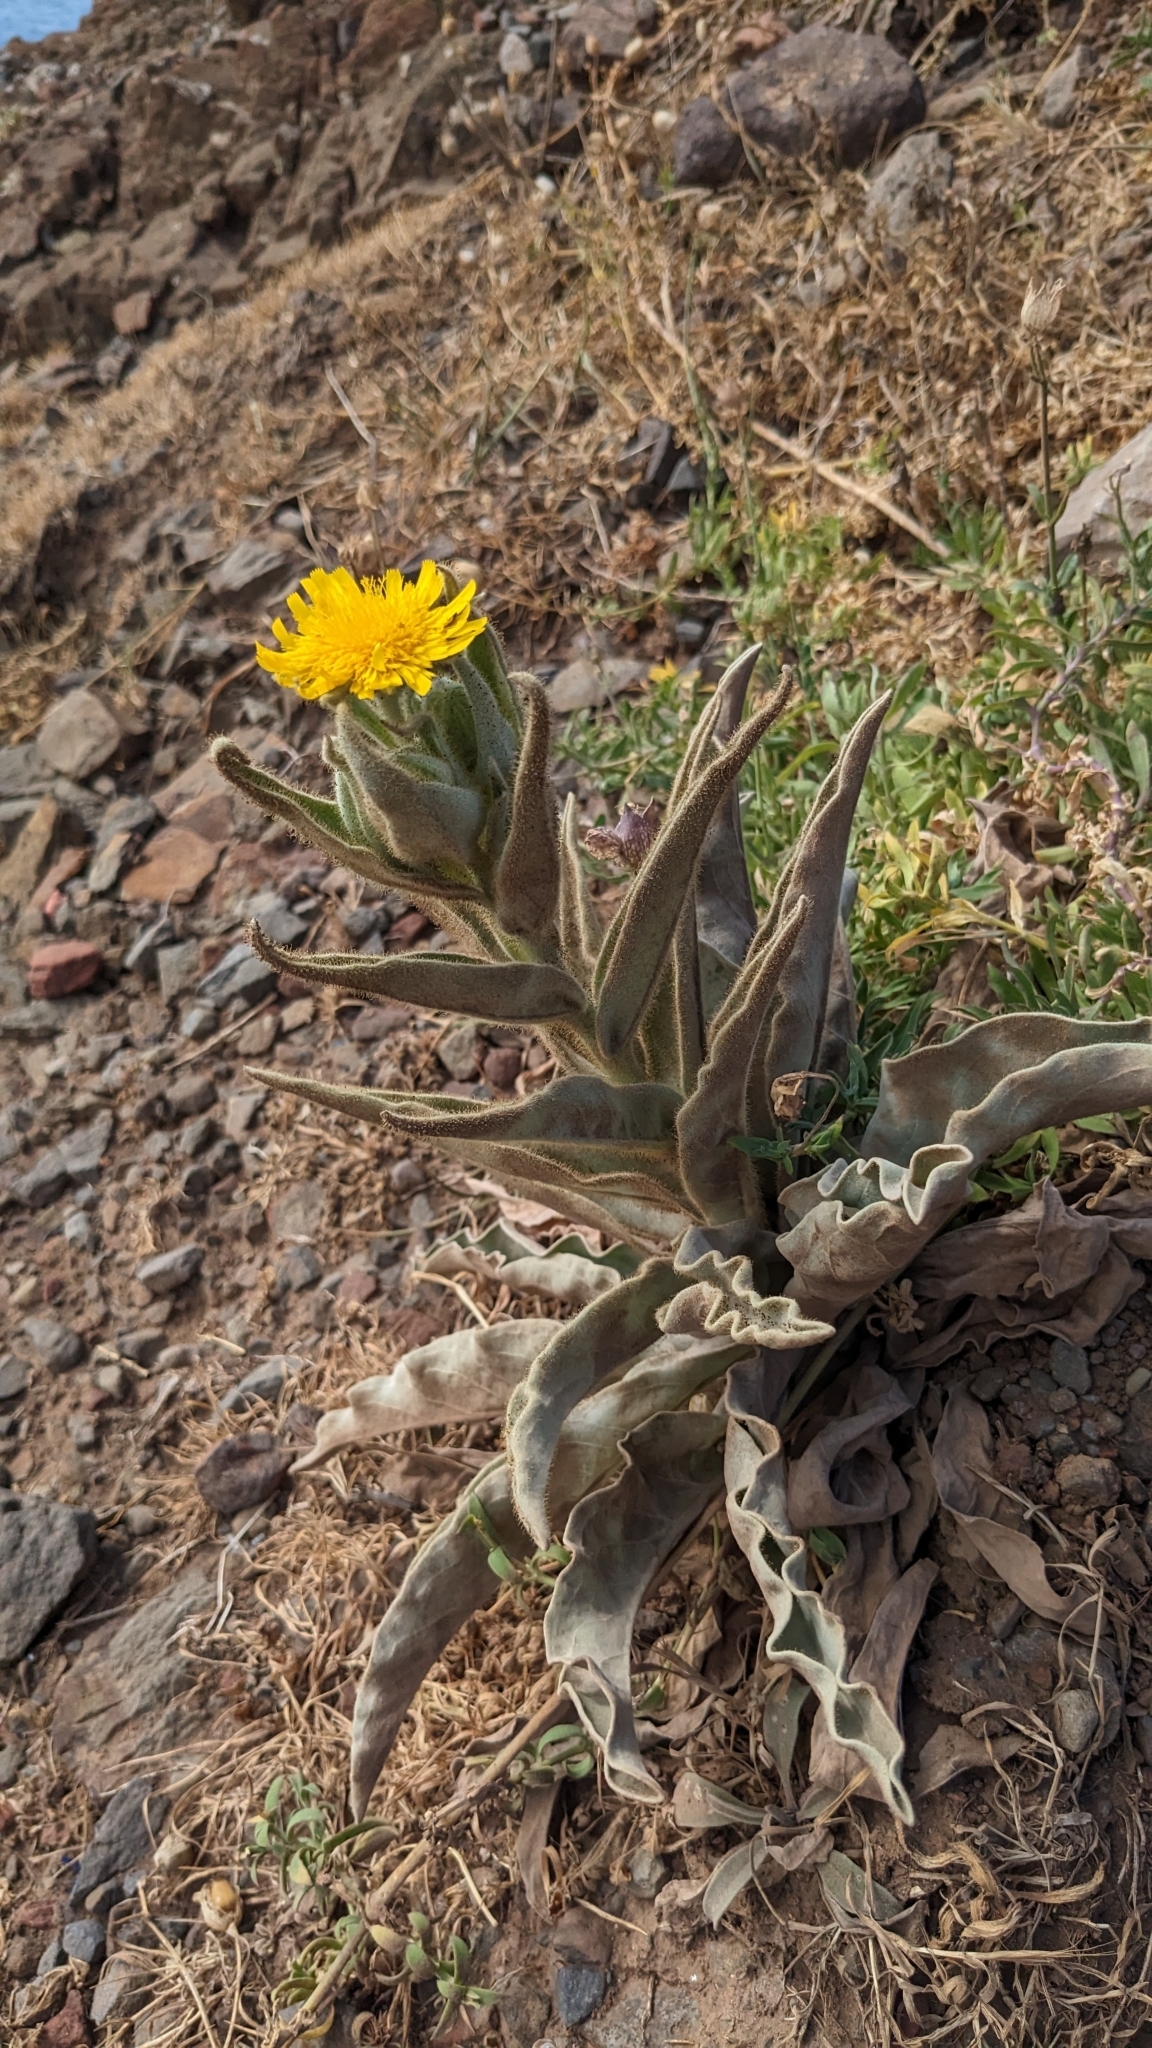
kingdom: Plantae
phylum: Tracheophyta
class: Magnoliopsida
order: Asterales
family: Asteraceae
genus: Andryala
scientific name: Andryala glandulosa
